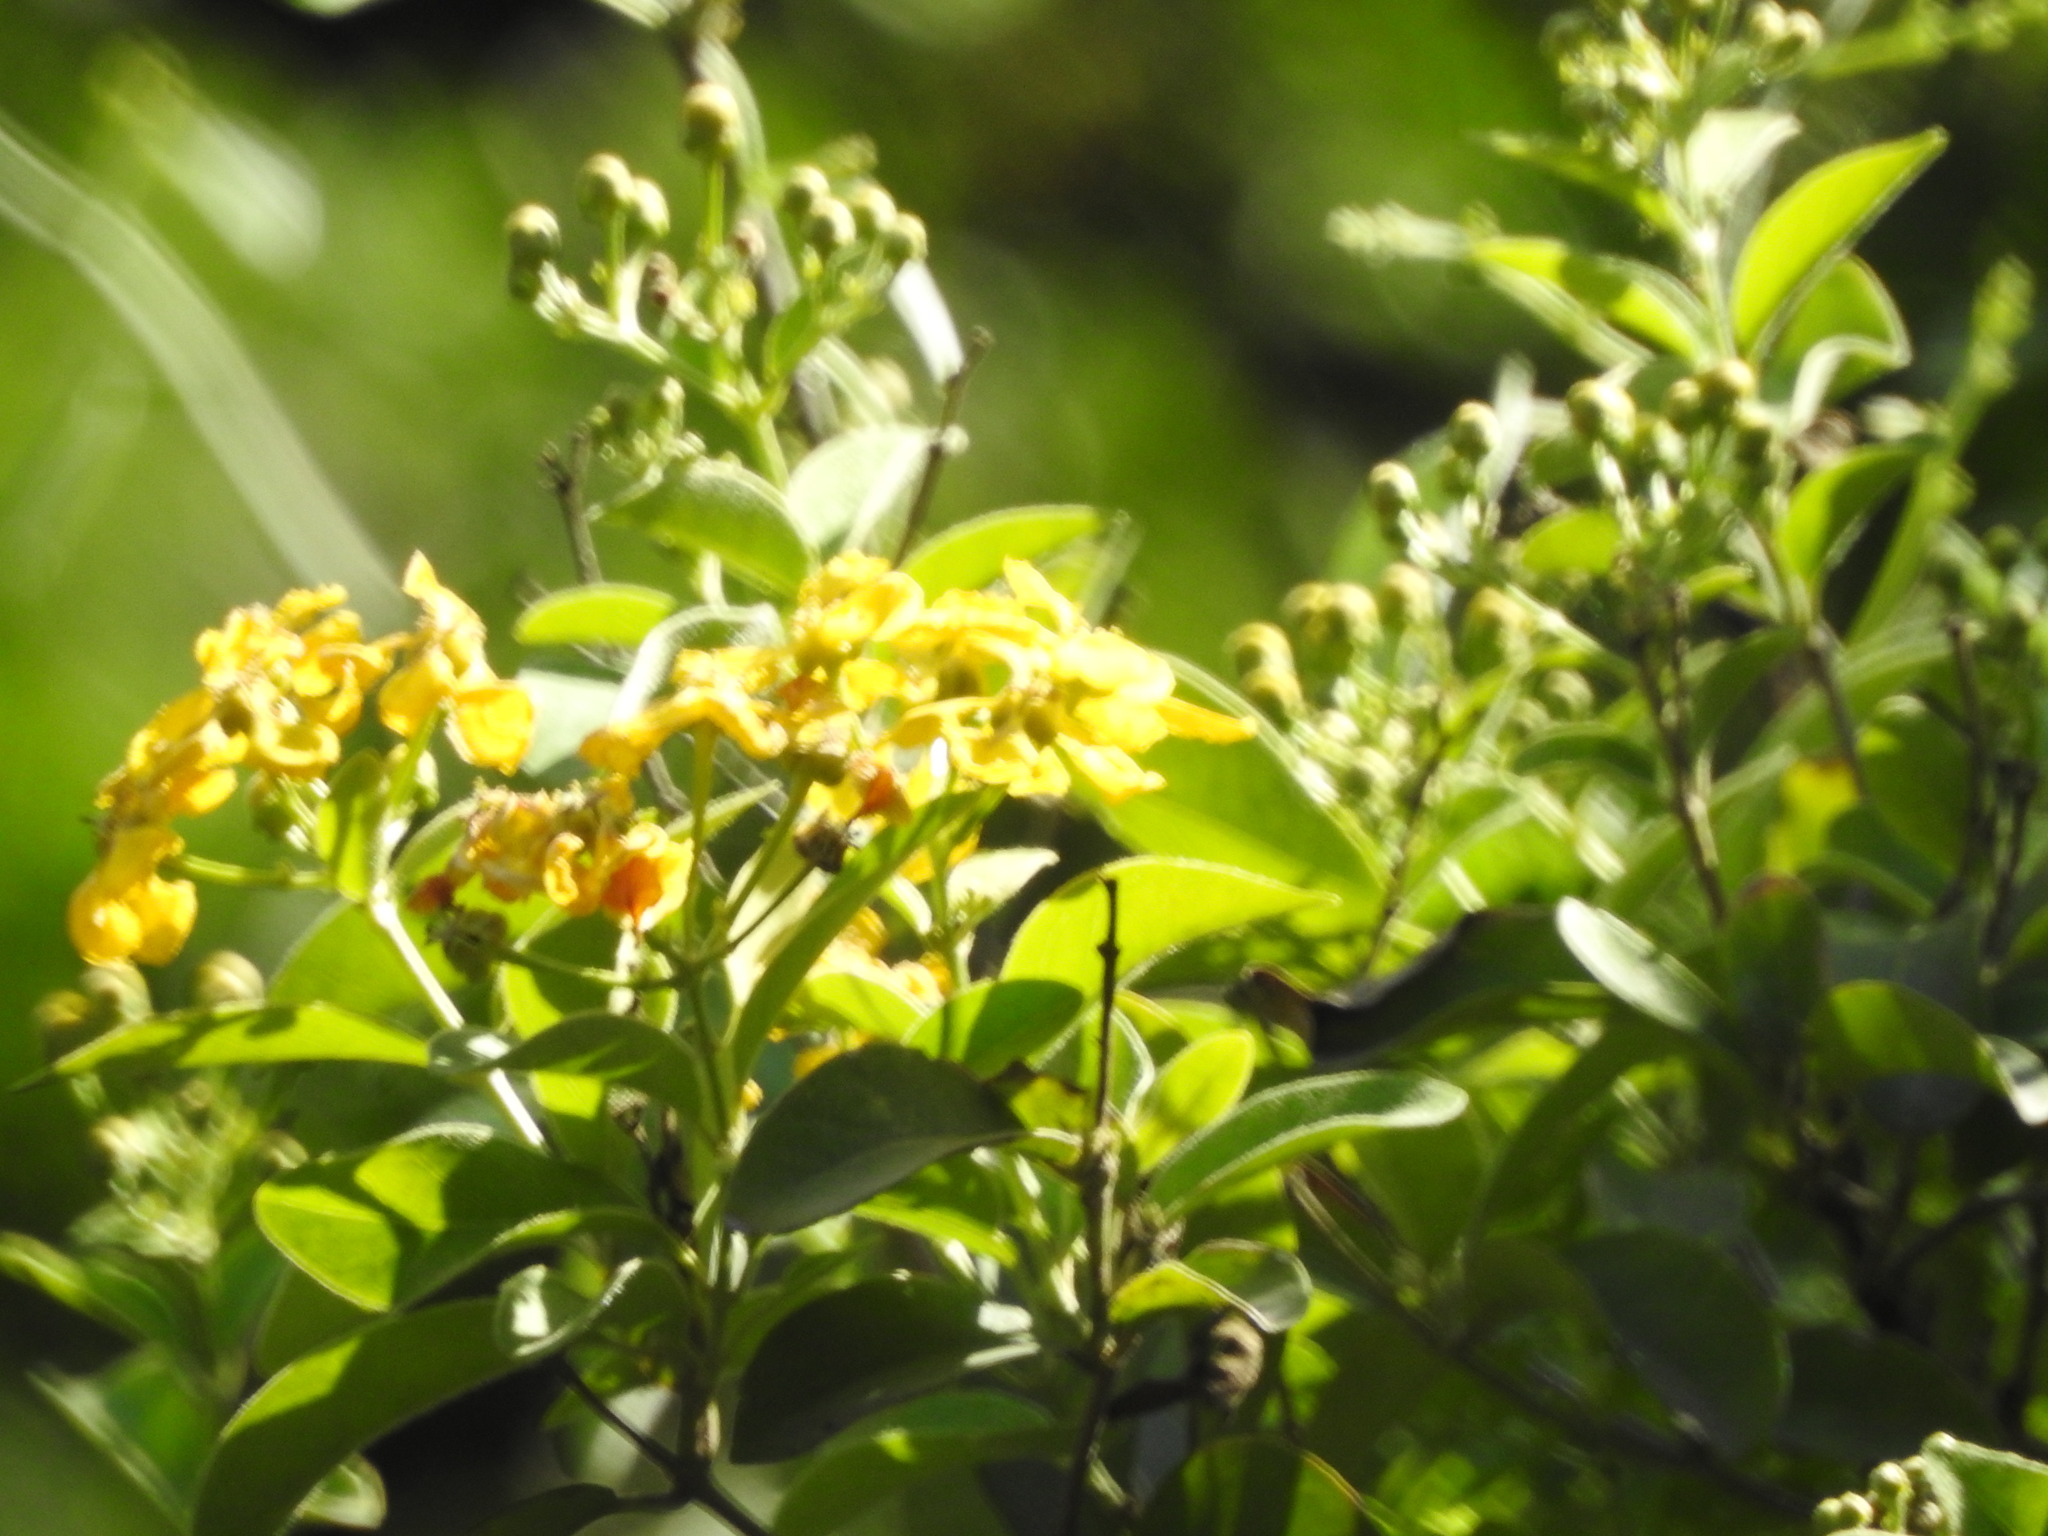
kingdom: Plantae
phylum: Tracheophyta
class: Magnoliopsida
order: Malpighiales
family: Malpighiaceae
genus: Callaeum
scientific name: Callaeum macropterum
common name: Mexican butterfly-vine
